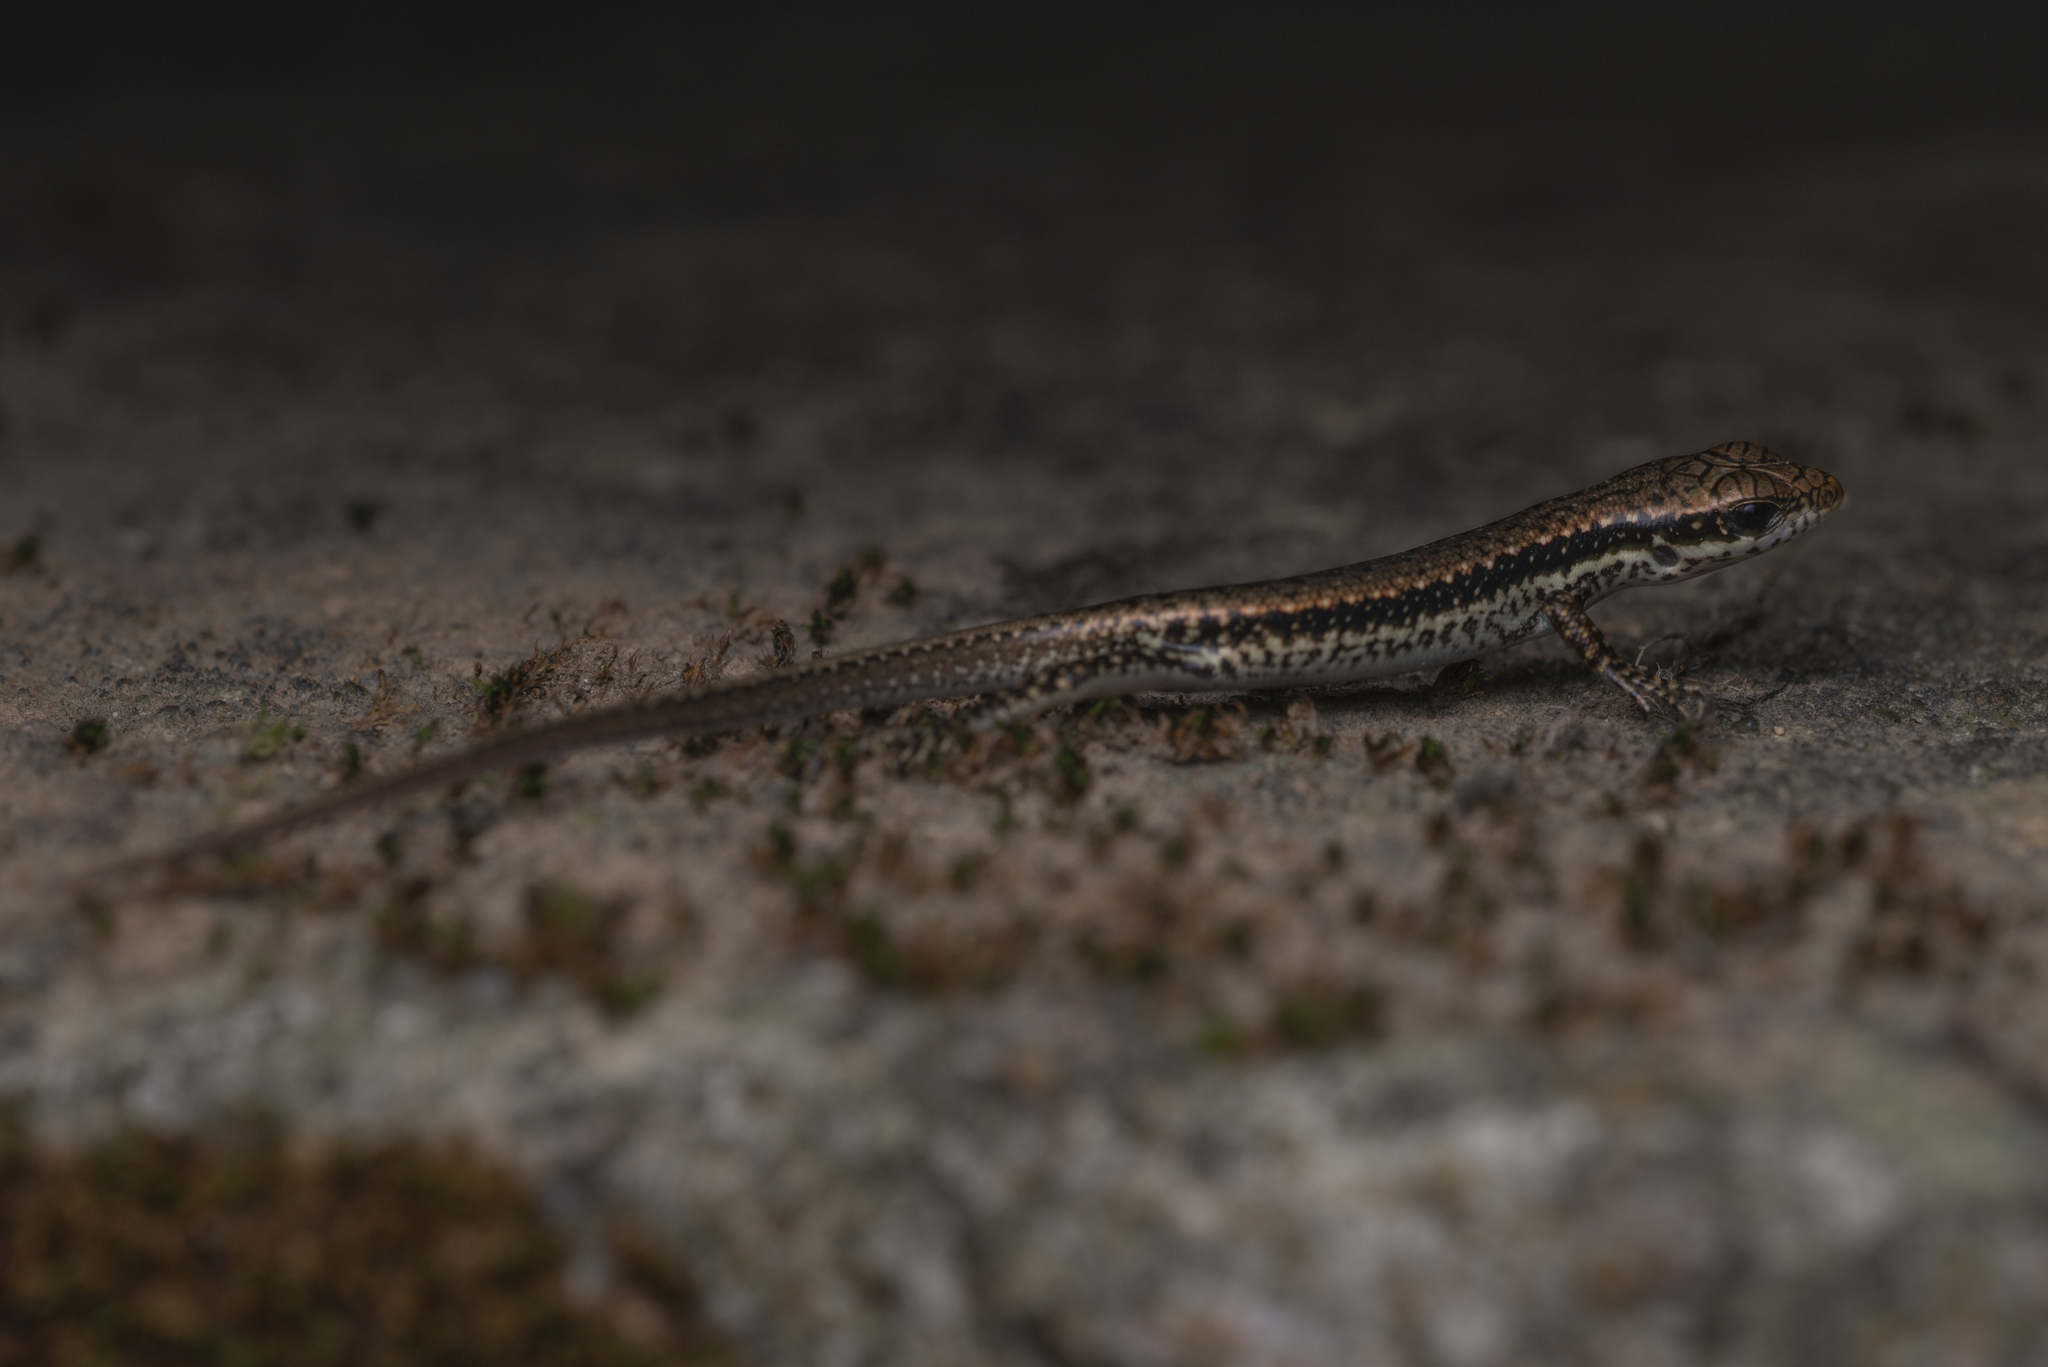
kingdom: Animalia
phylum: Chordata
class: Squamata
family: Scincidae
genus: Sphenomorphus
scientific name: Sphenomorphus incognitus
